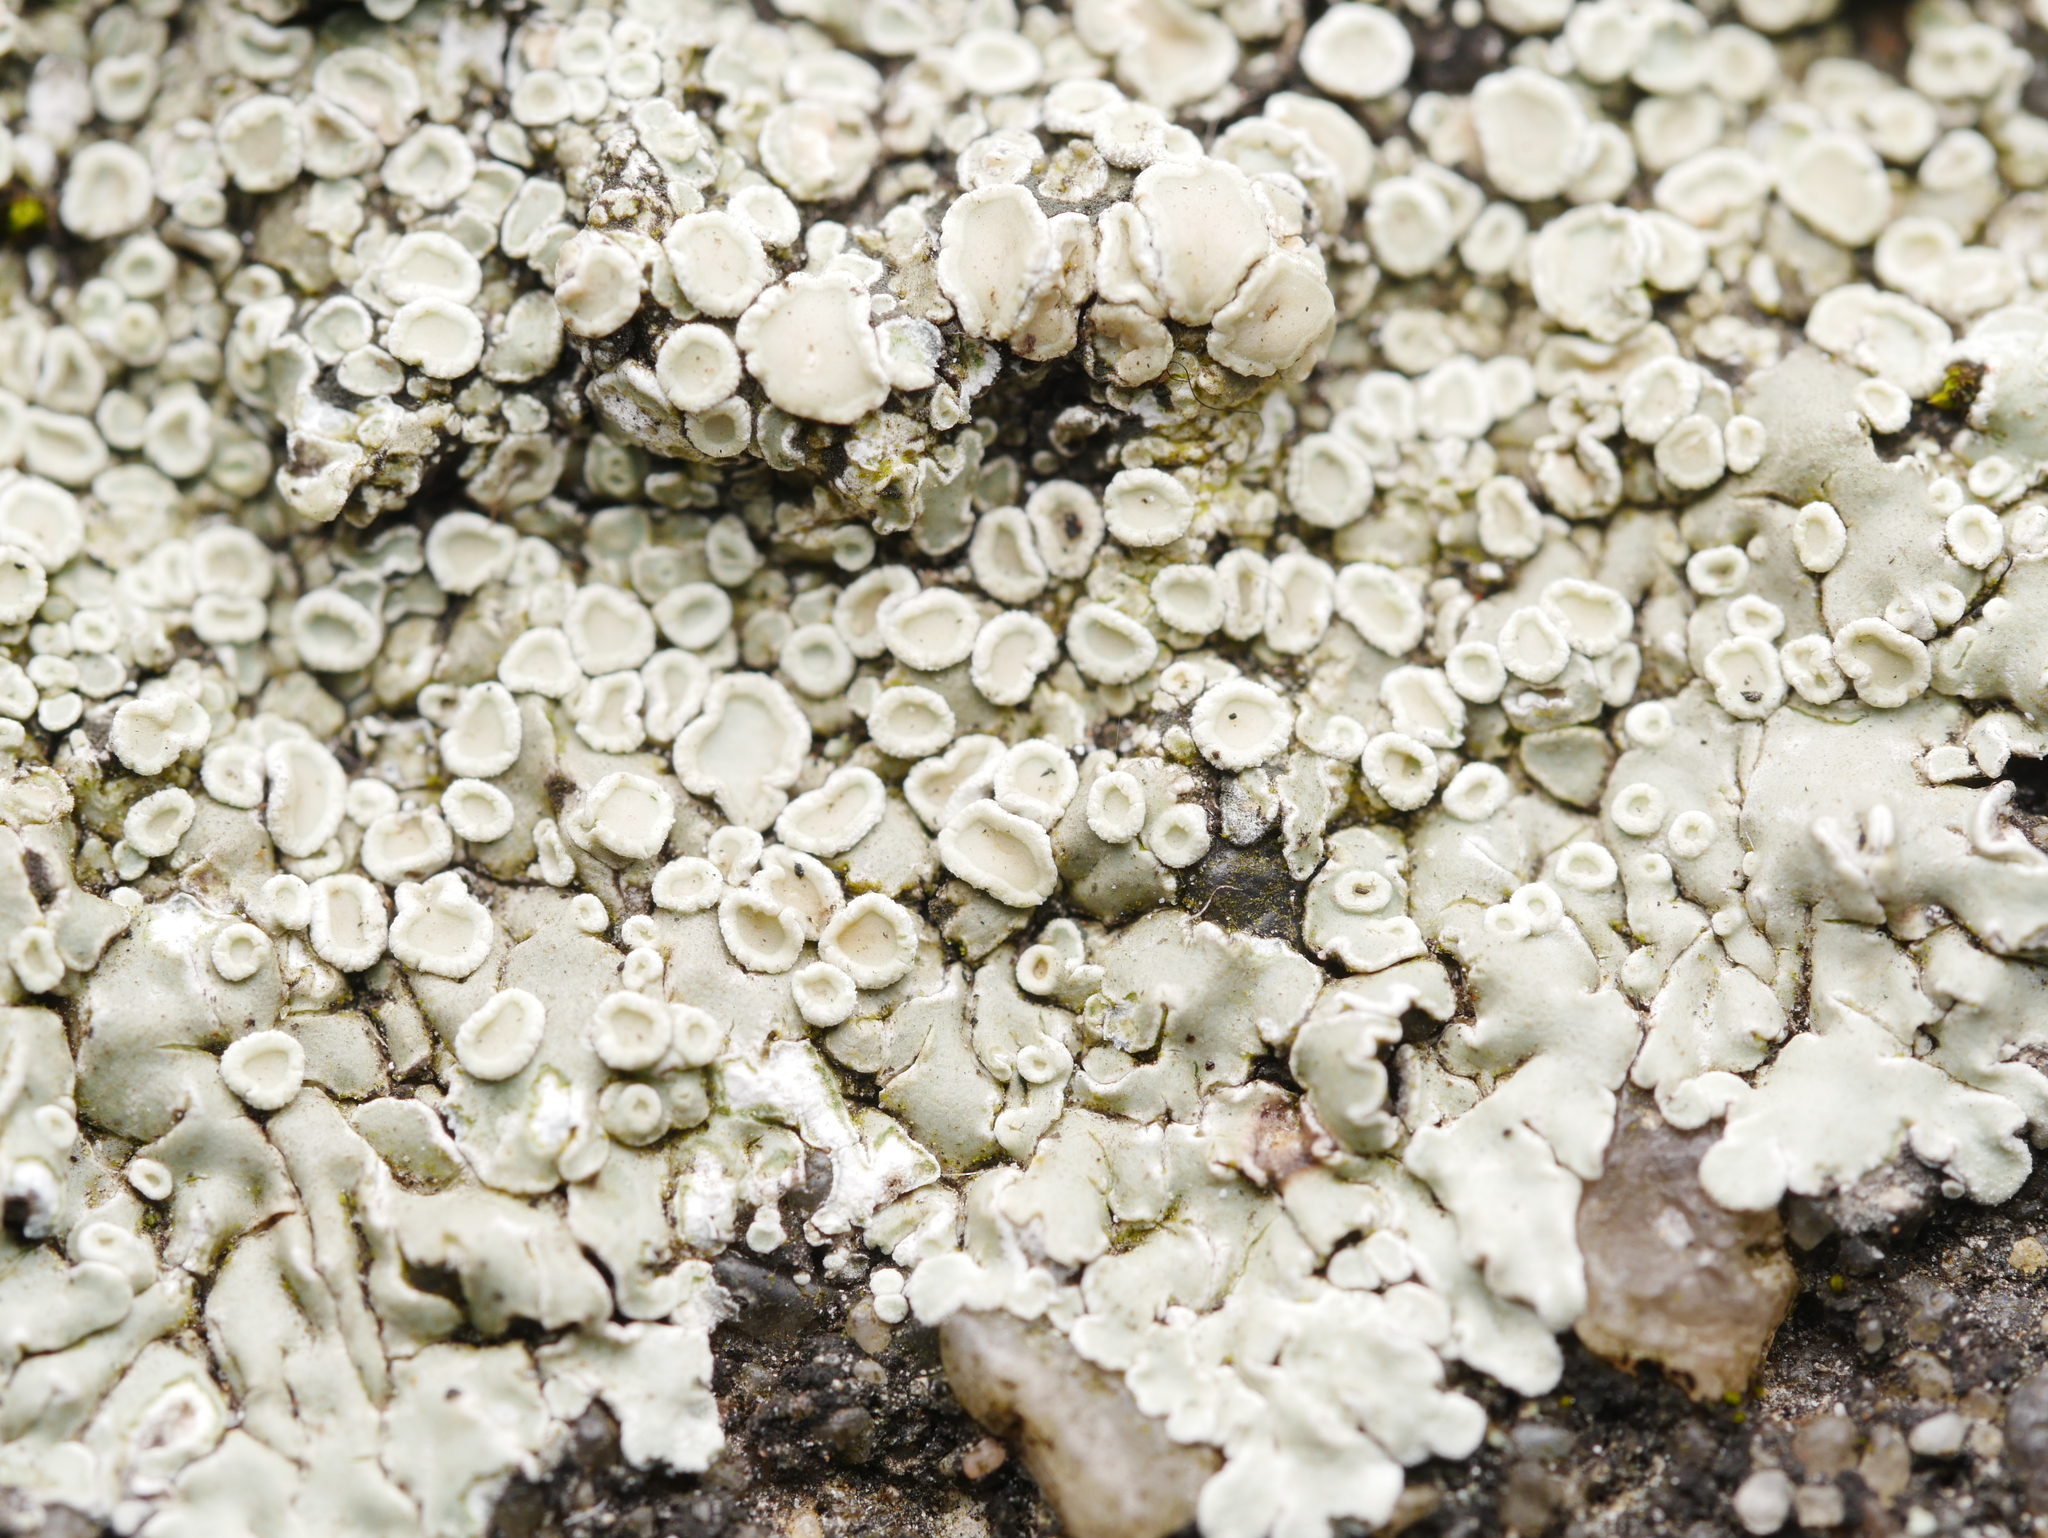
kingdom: Fungi
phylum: Ascomycota
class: Lecanoromycetes
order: Lecanorales
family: Lecanoraceae
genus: Protoparmeliopsis
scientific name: Protoparmeliopsis muralis
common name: Stonewall rim lichen
